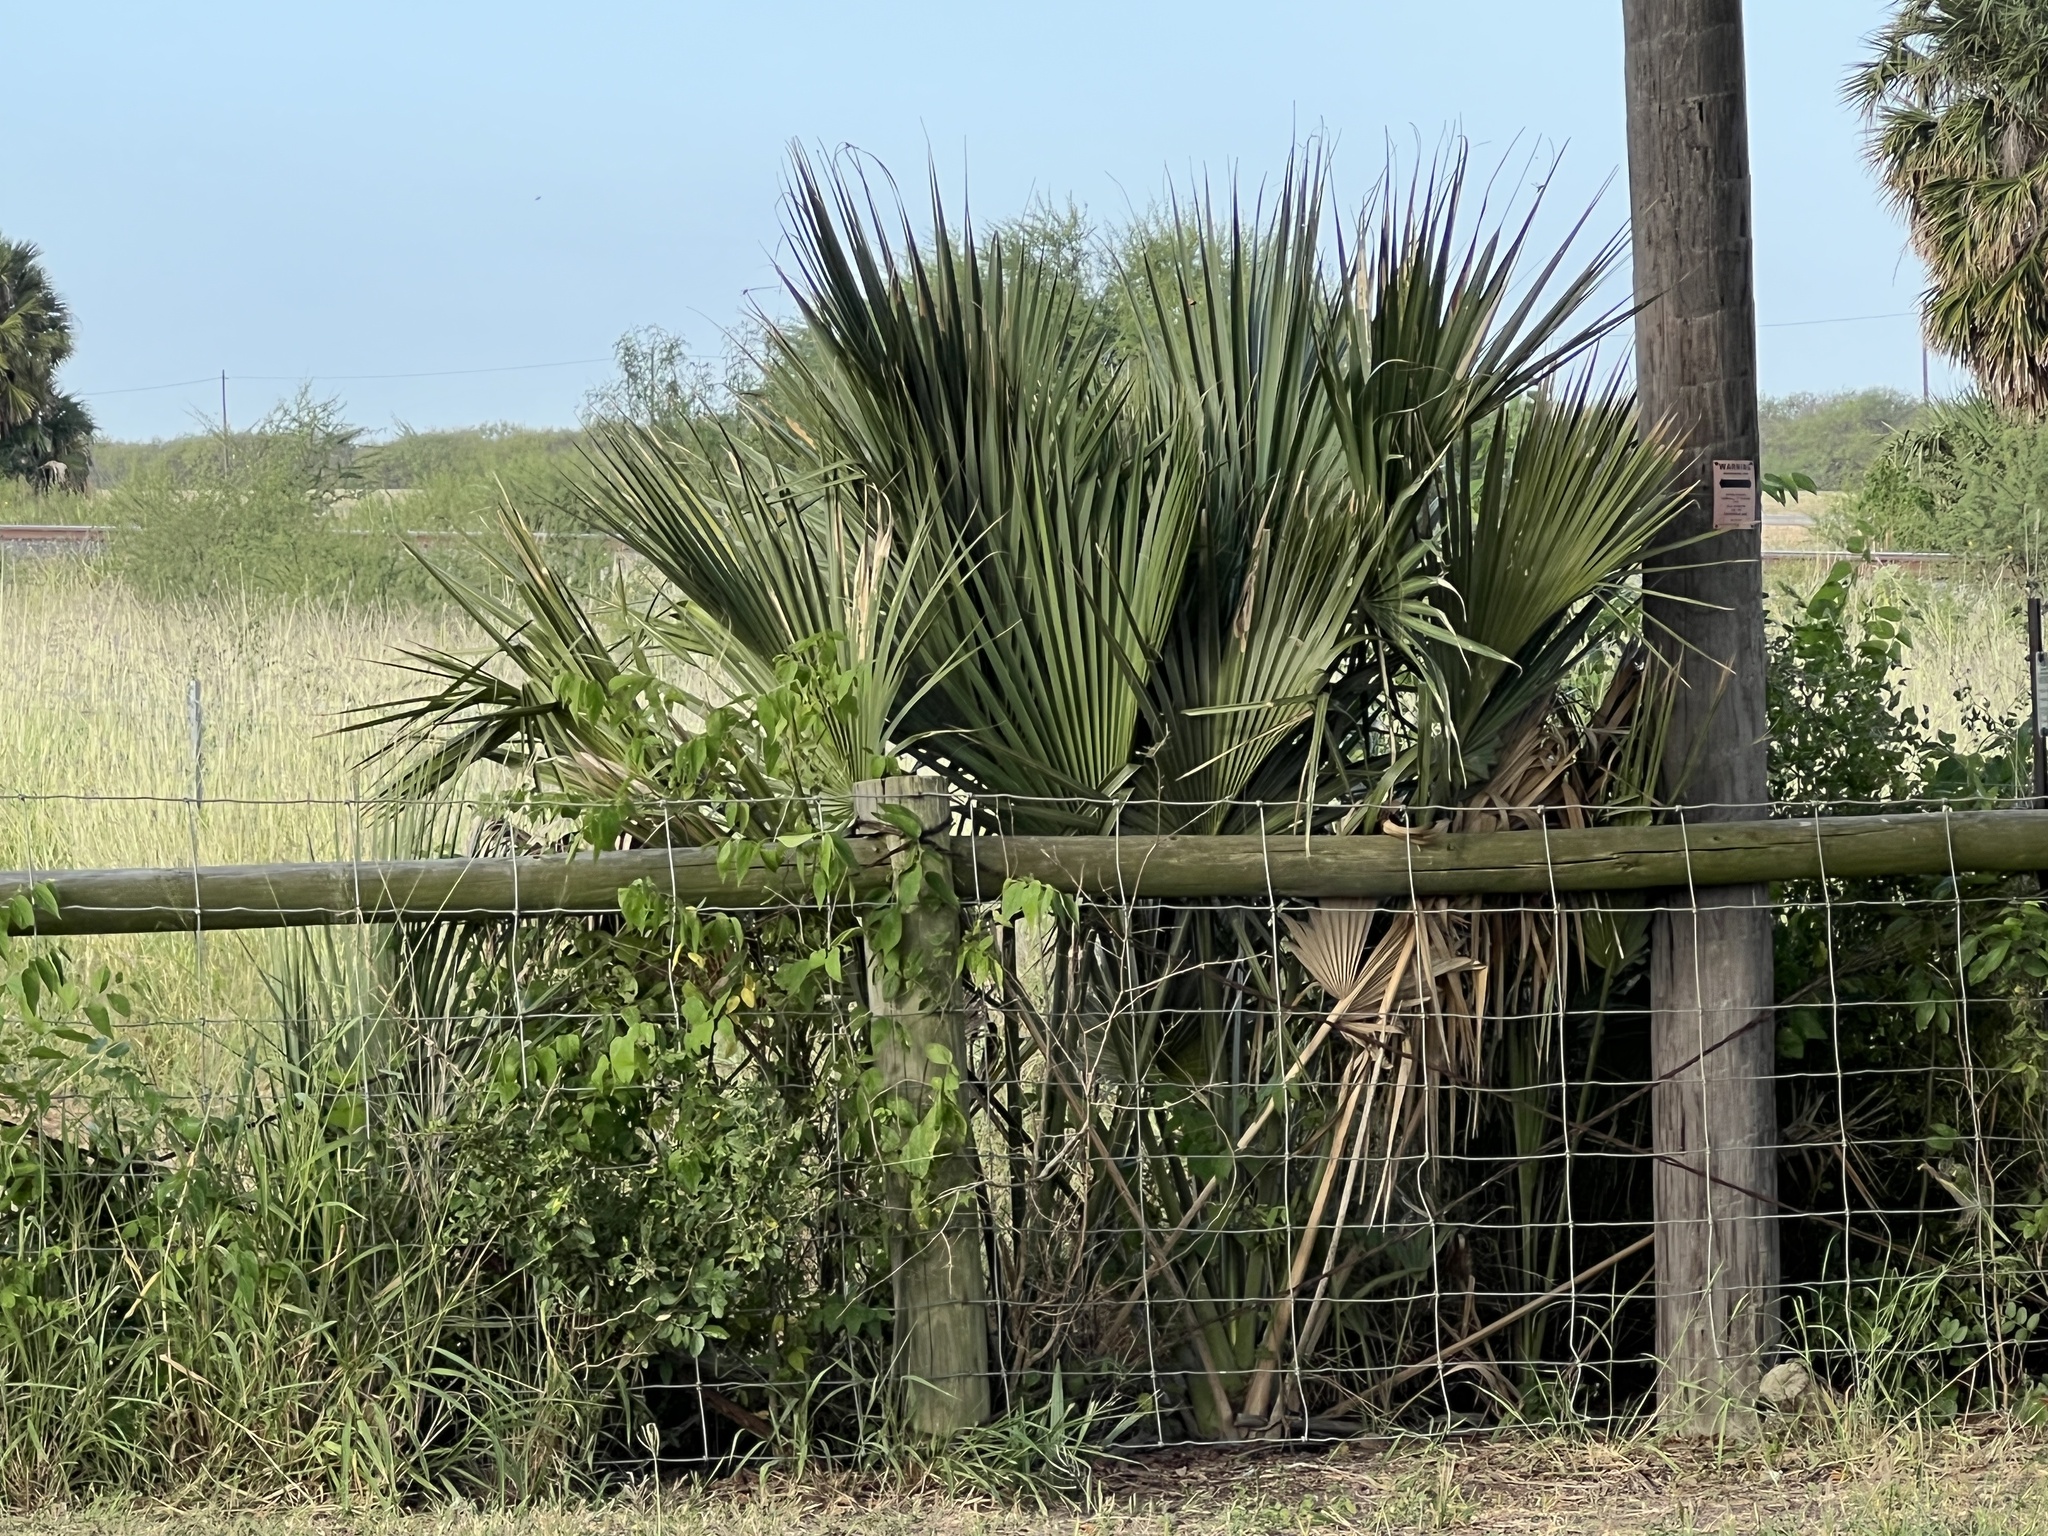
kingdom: Plantae
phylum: Tracheophyta
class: Liliopsida
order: Arecales
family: Arecaceae
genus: Sabal
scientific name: Sabal mexicana
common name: Texas palmetto
